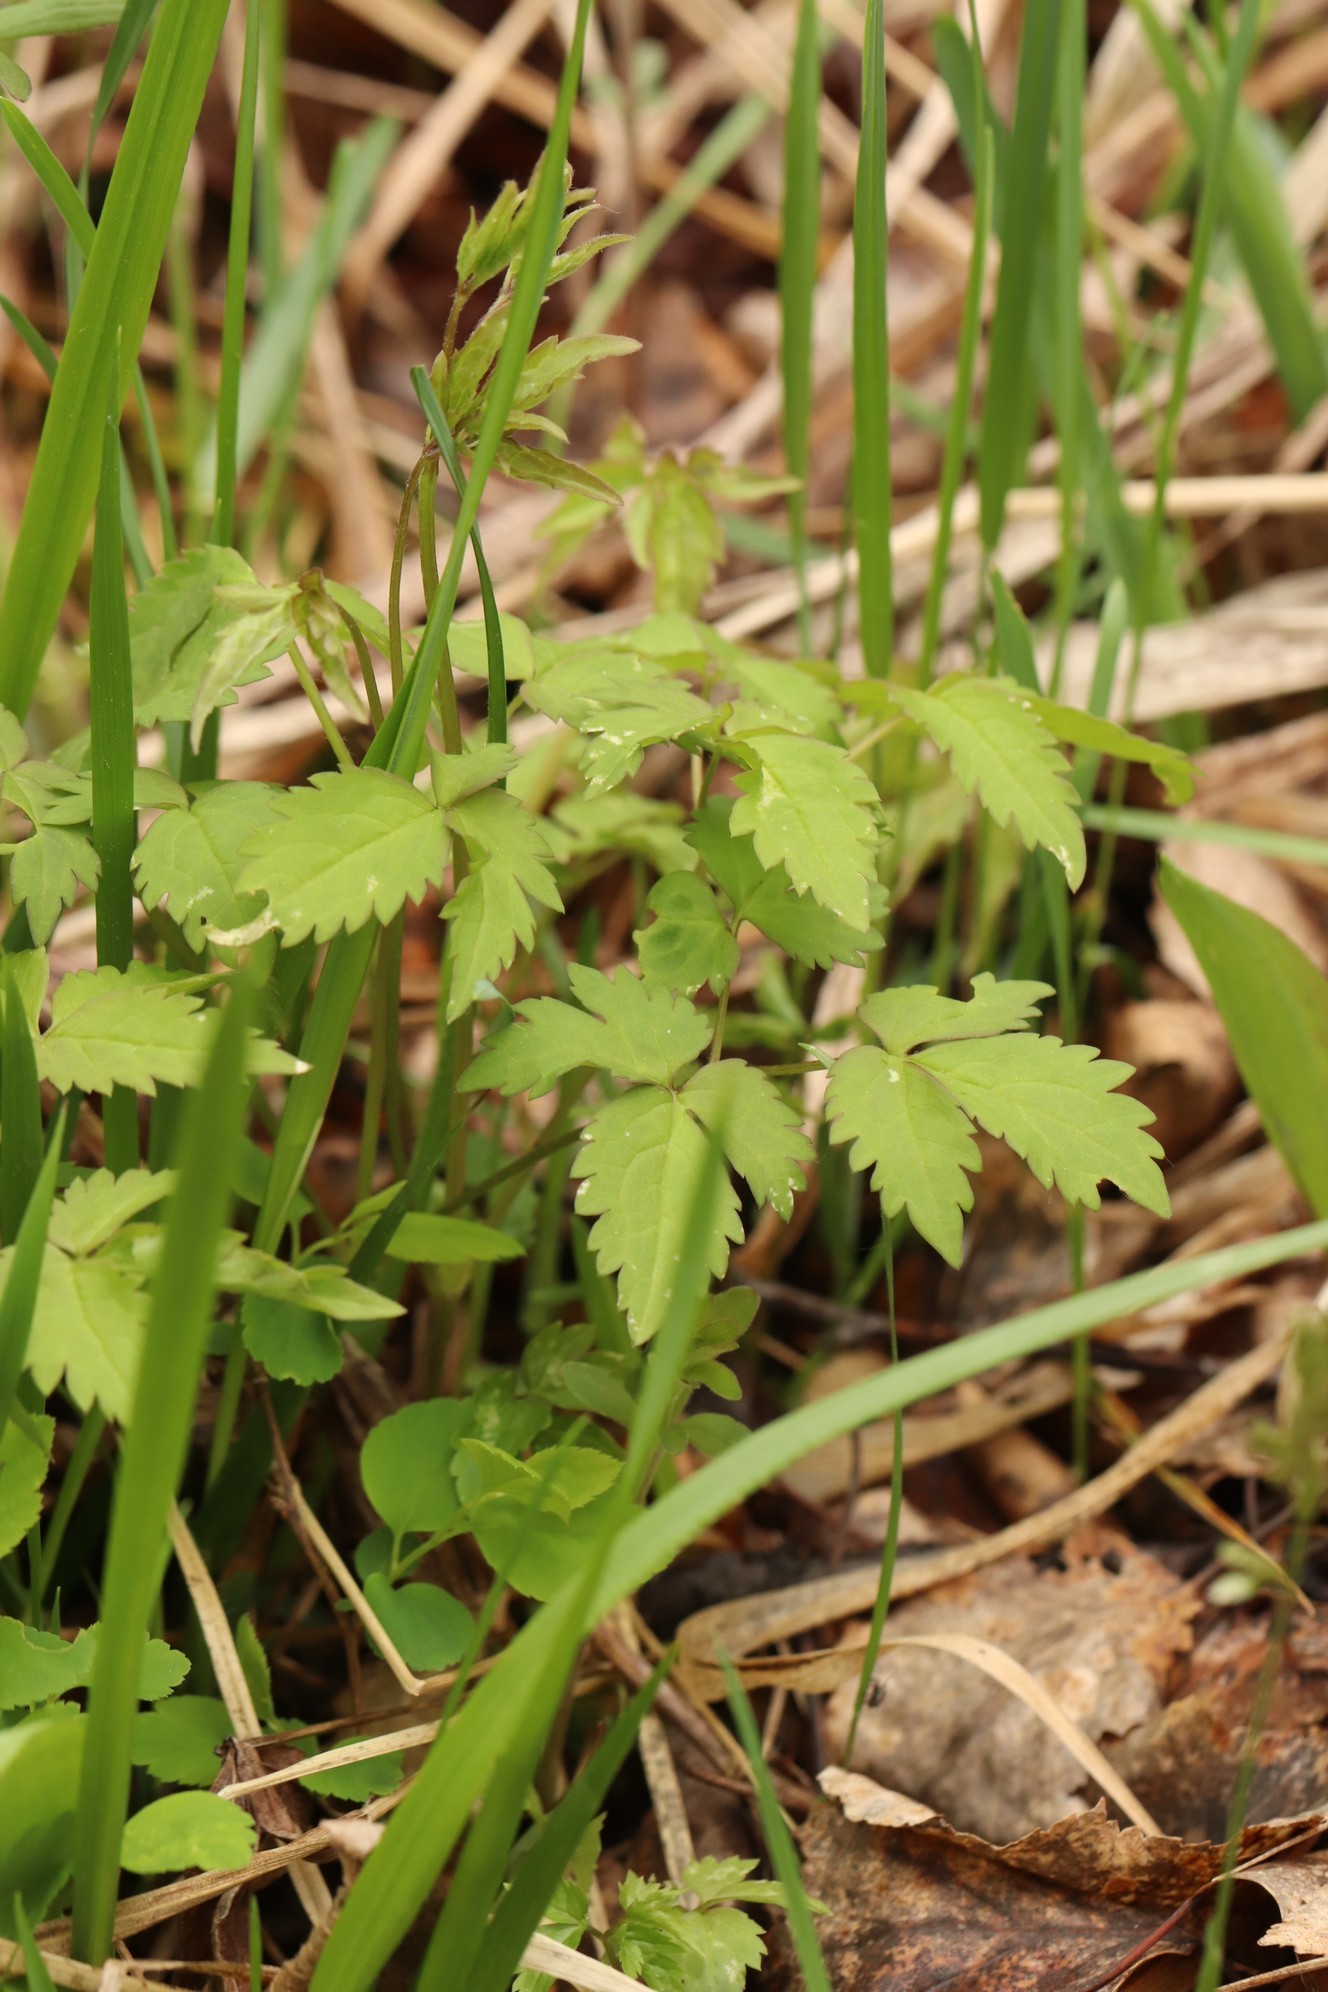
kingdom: Plantae
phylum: Tracheophyta
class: Magnoliopsida
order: Ranunculales
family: Ranunculaceae
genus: Clematis
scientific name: Clematis sibirica
